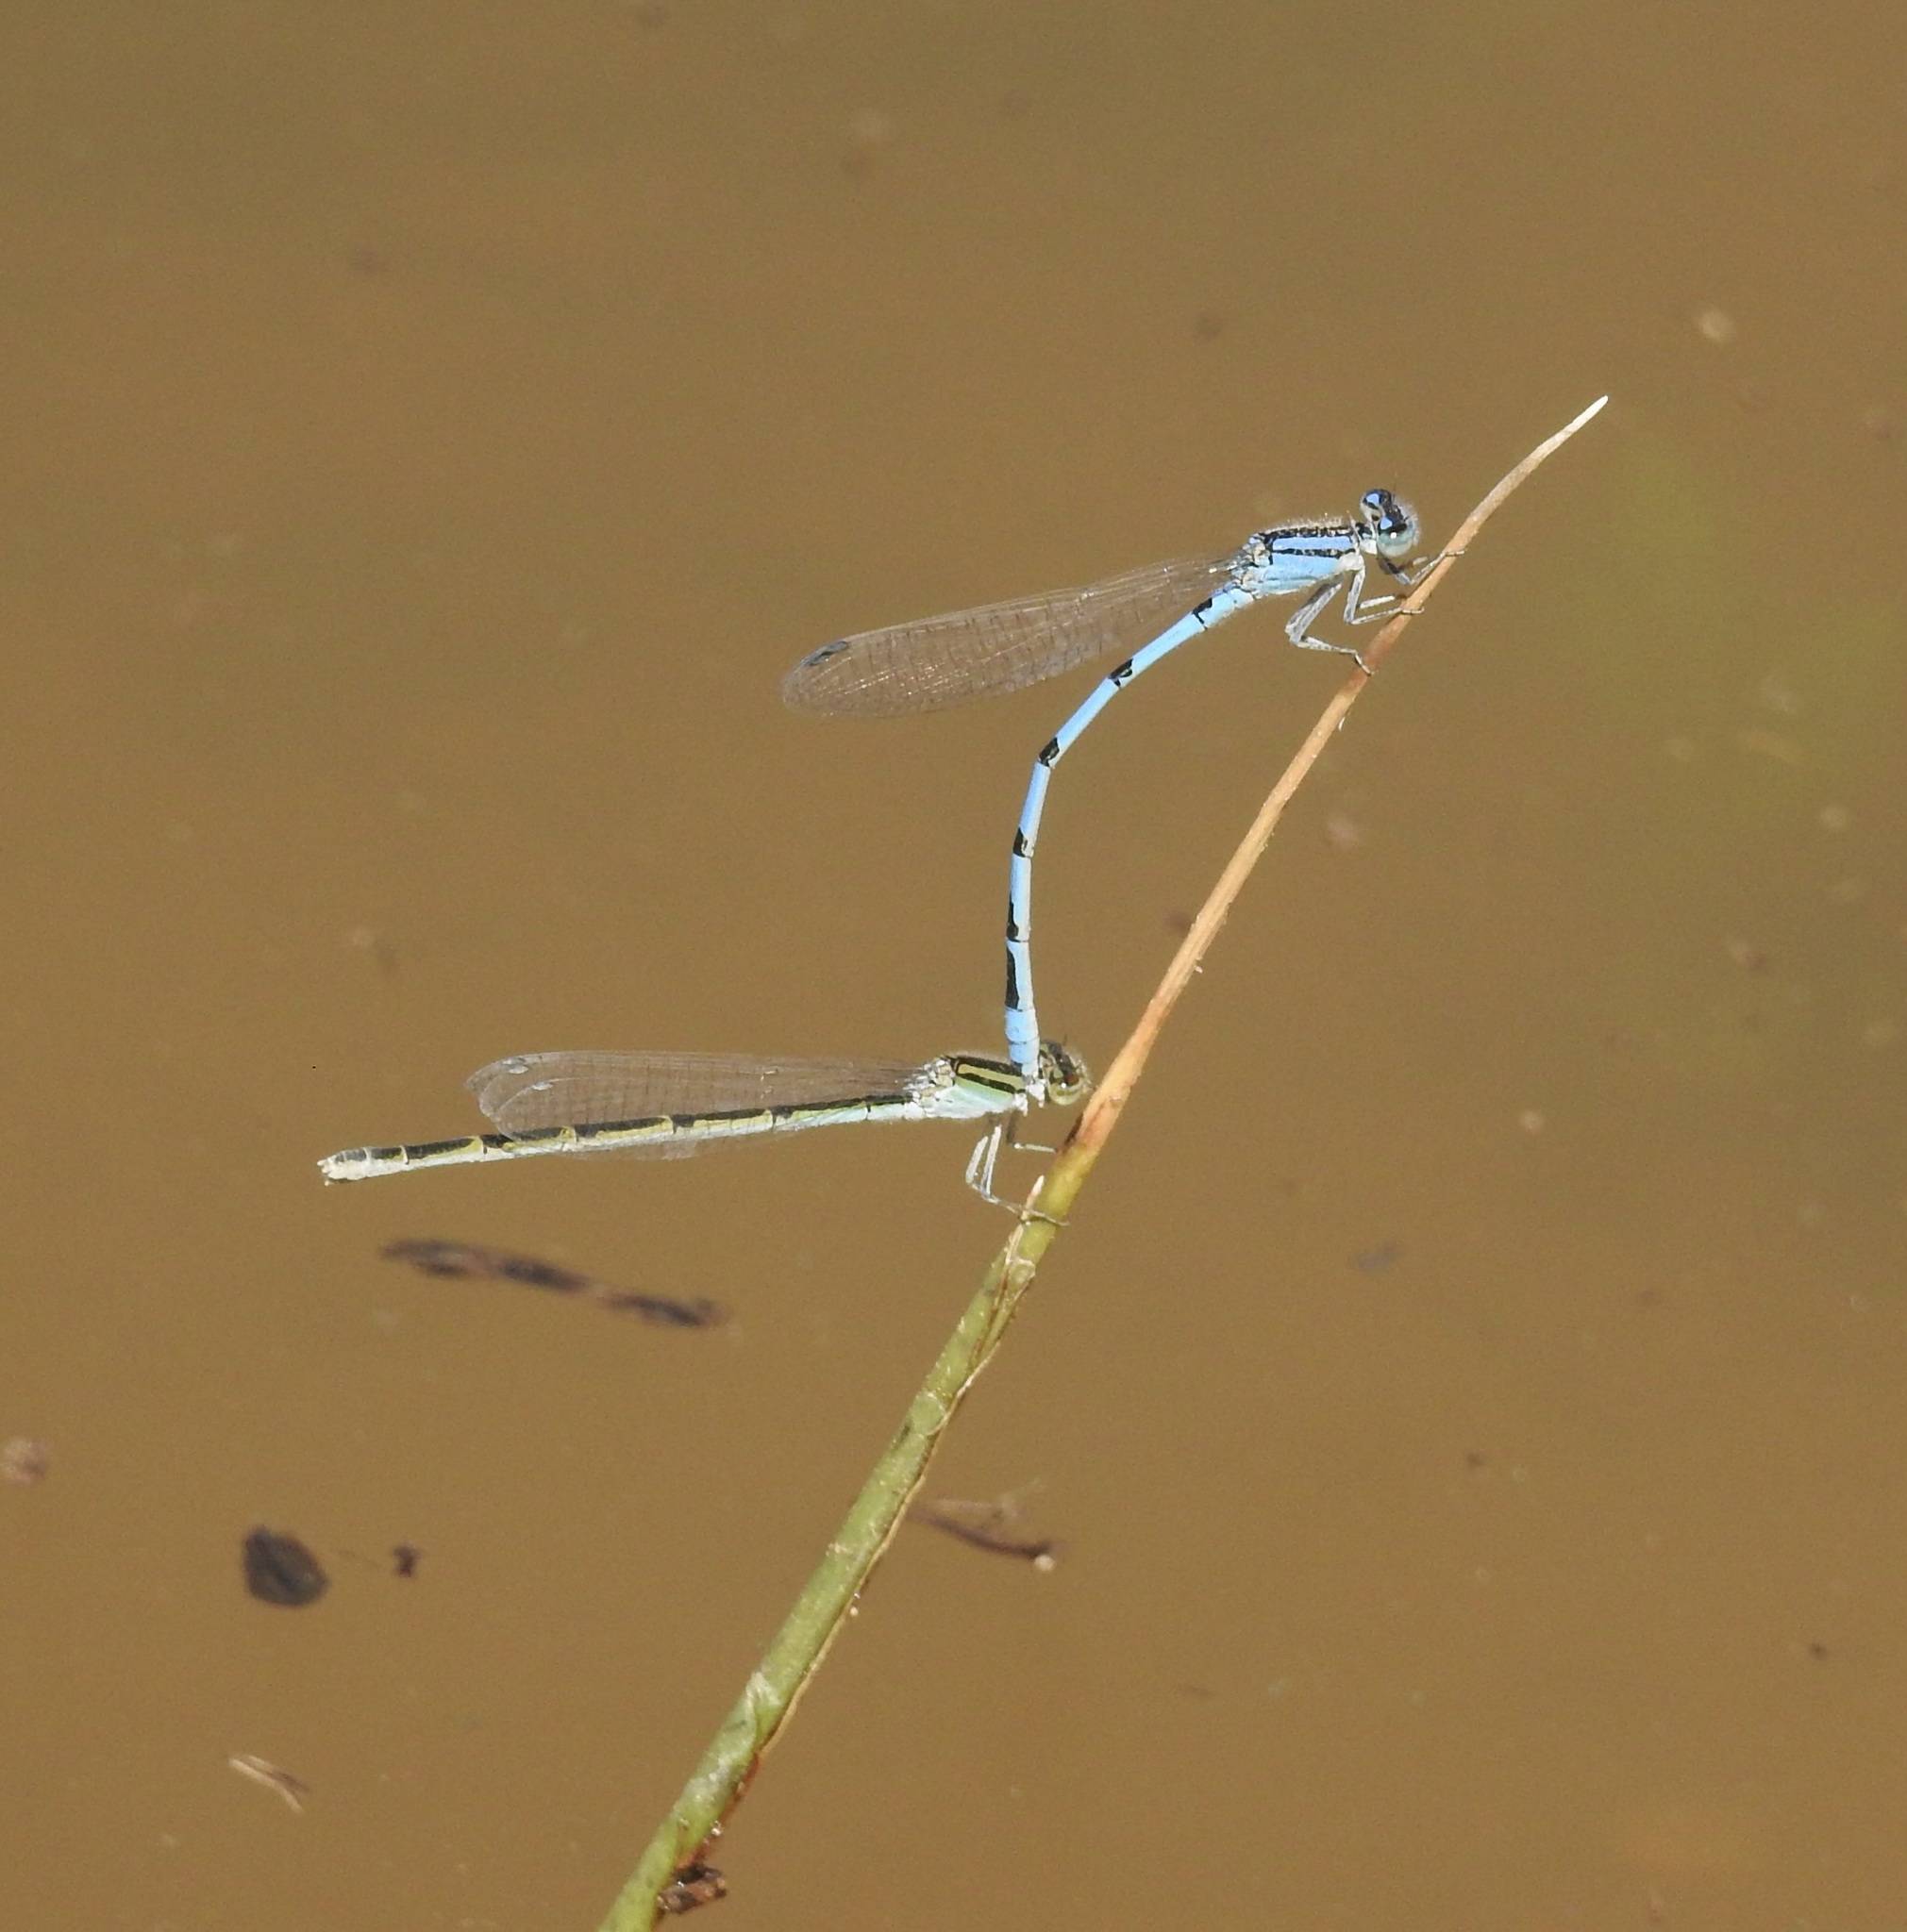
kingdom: Animalia
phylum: Arthropoda
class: Insecta
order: Odonata
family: Coenagrionidae
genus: Enallagma
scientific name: Enallagma civile
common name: Damselfly
